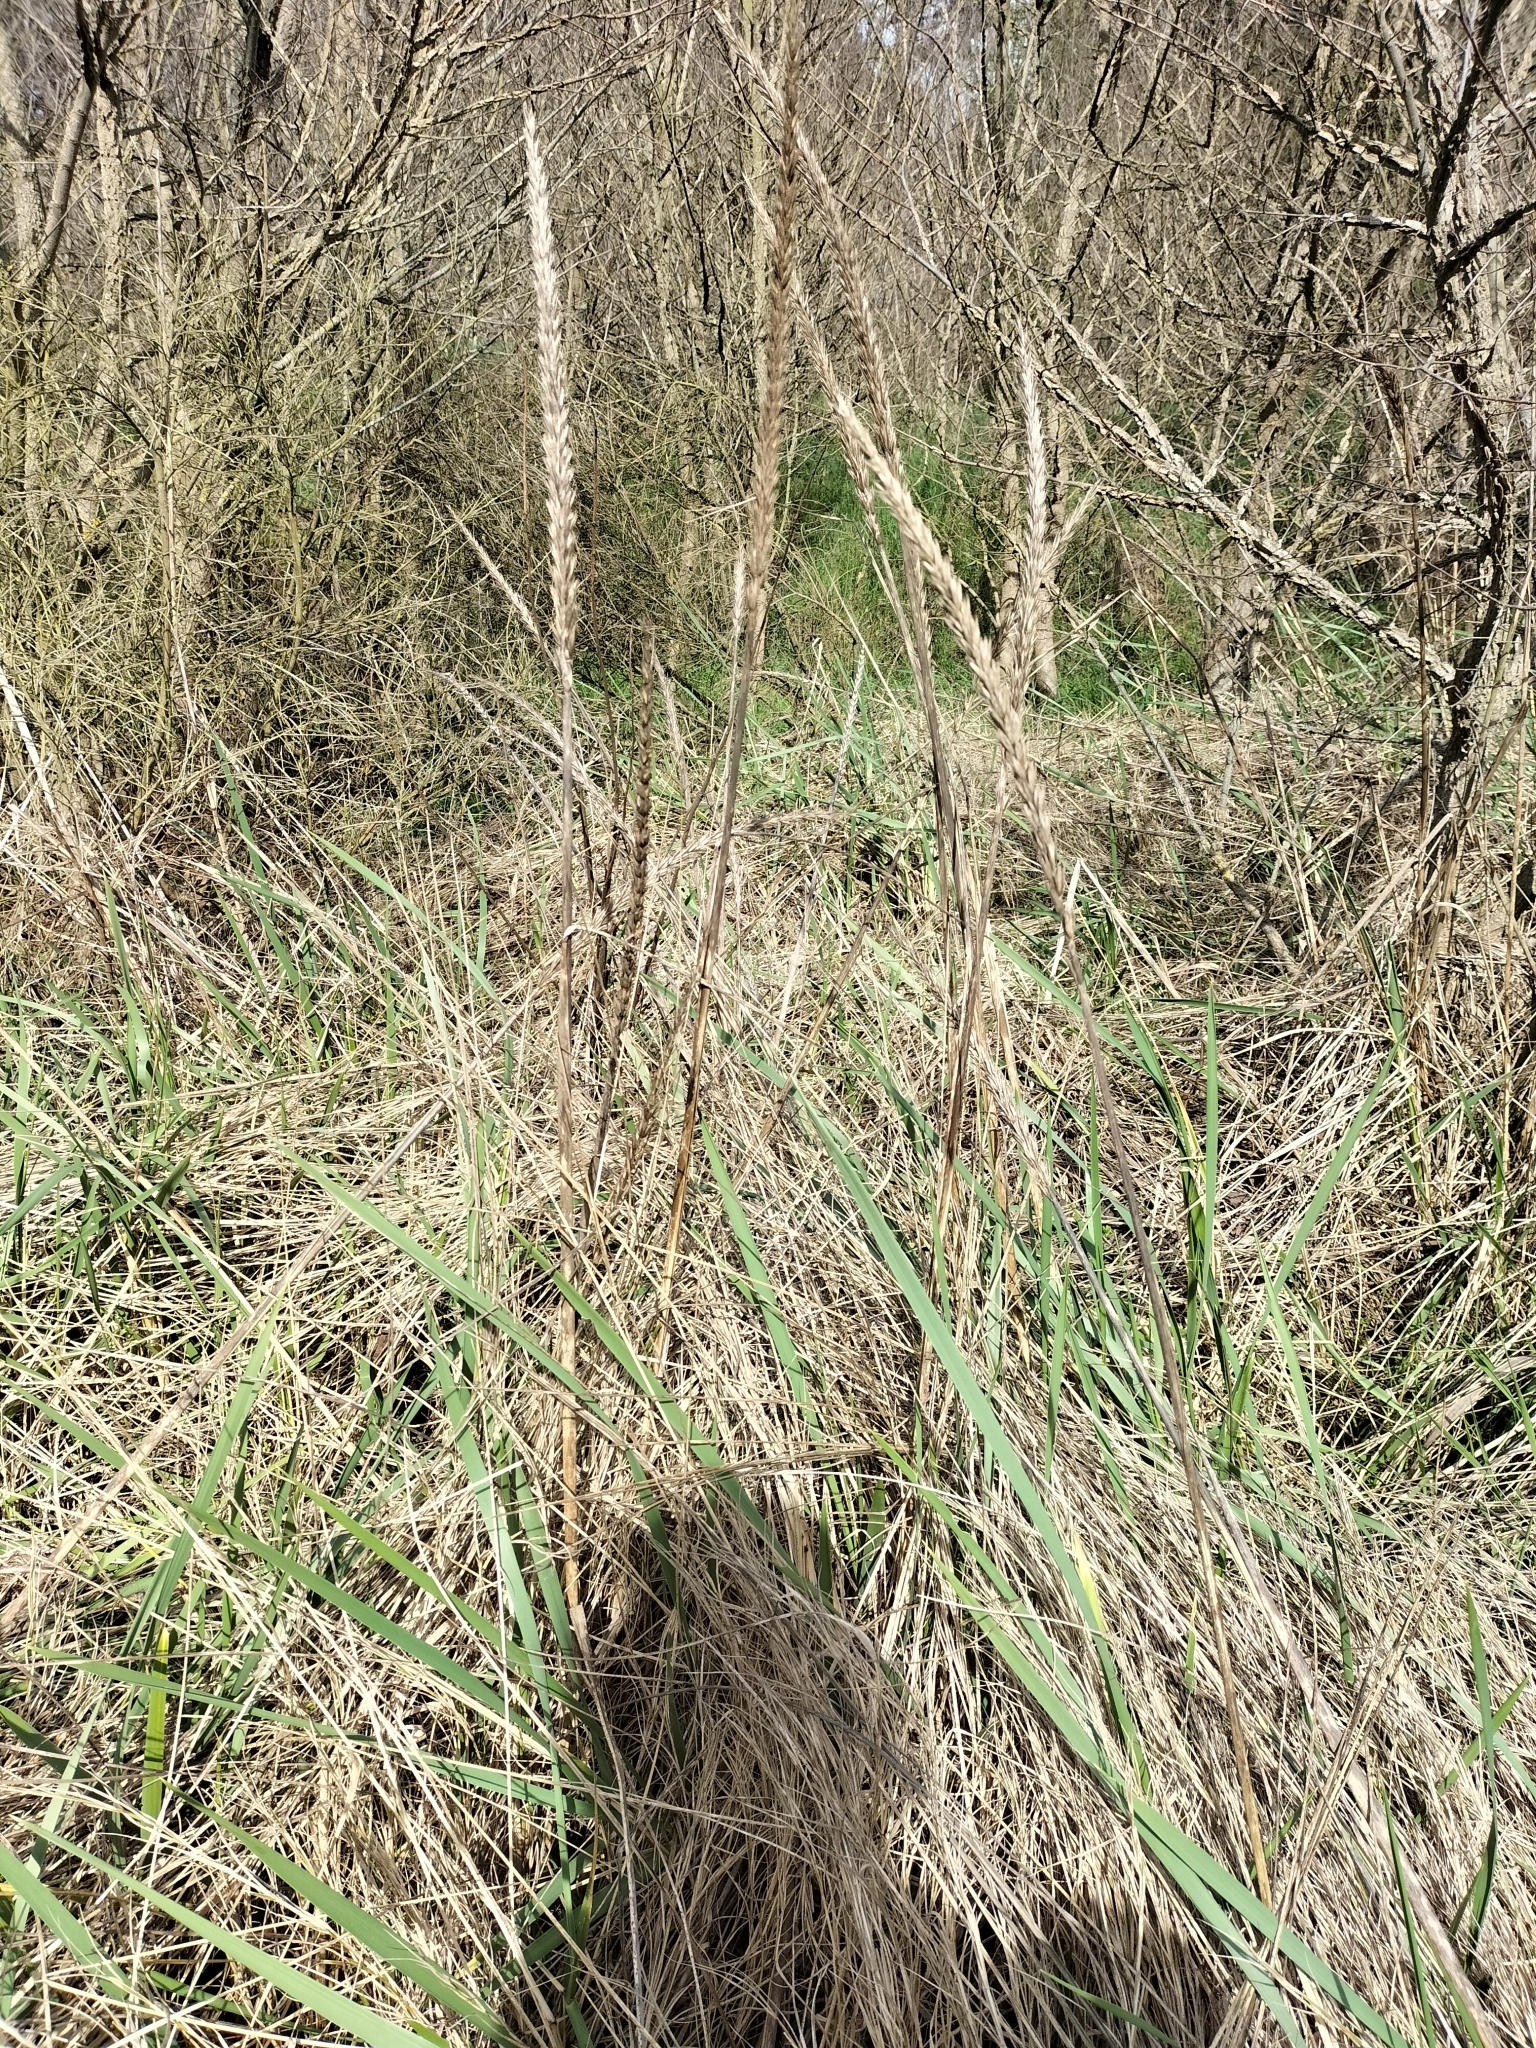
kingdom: Plantae
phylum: Tracheophyta
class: Liliopsida
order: Poales
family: Poaceae
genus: Leymus
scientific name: Leymus arenarius
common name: Lyme-grass
